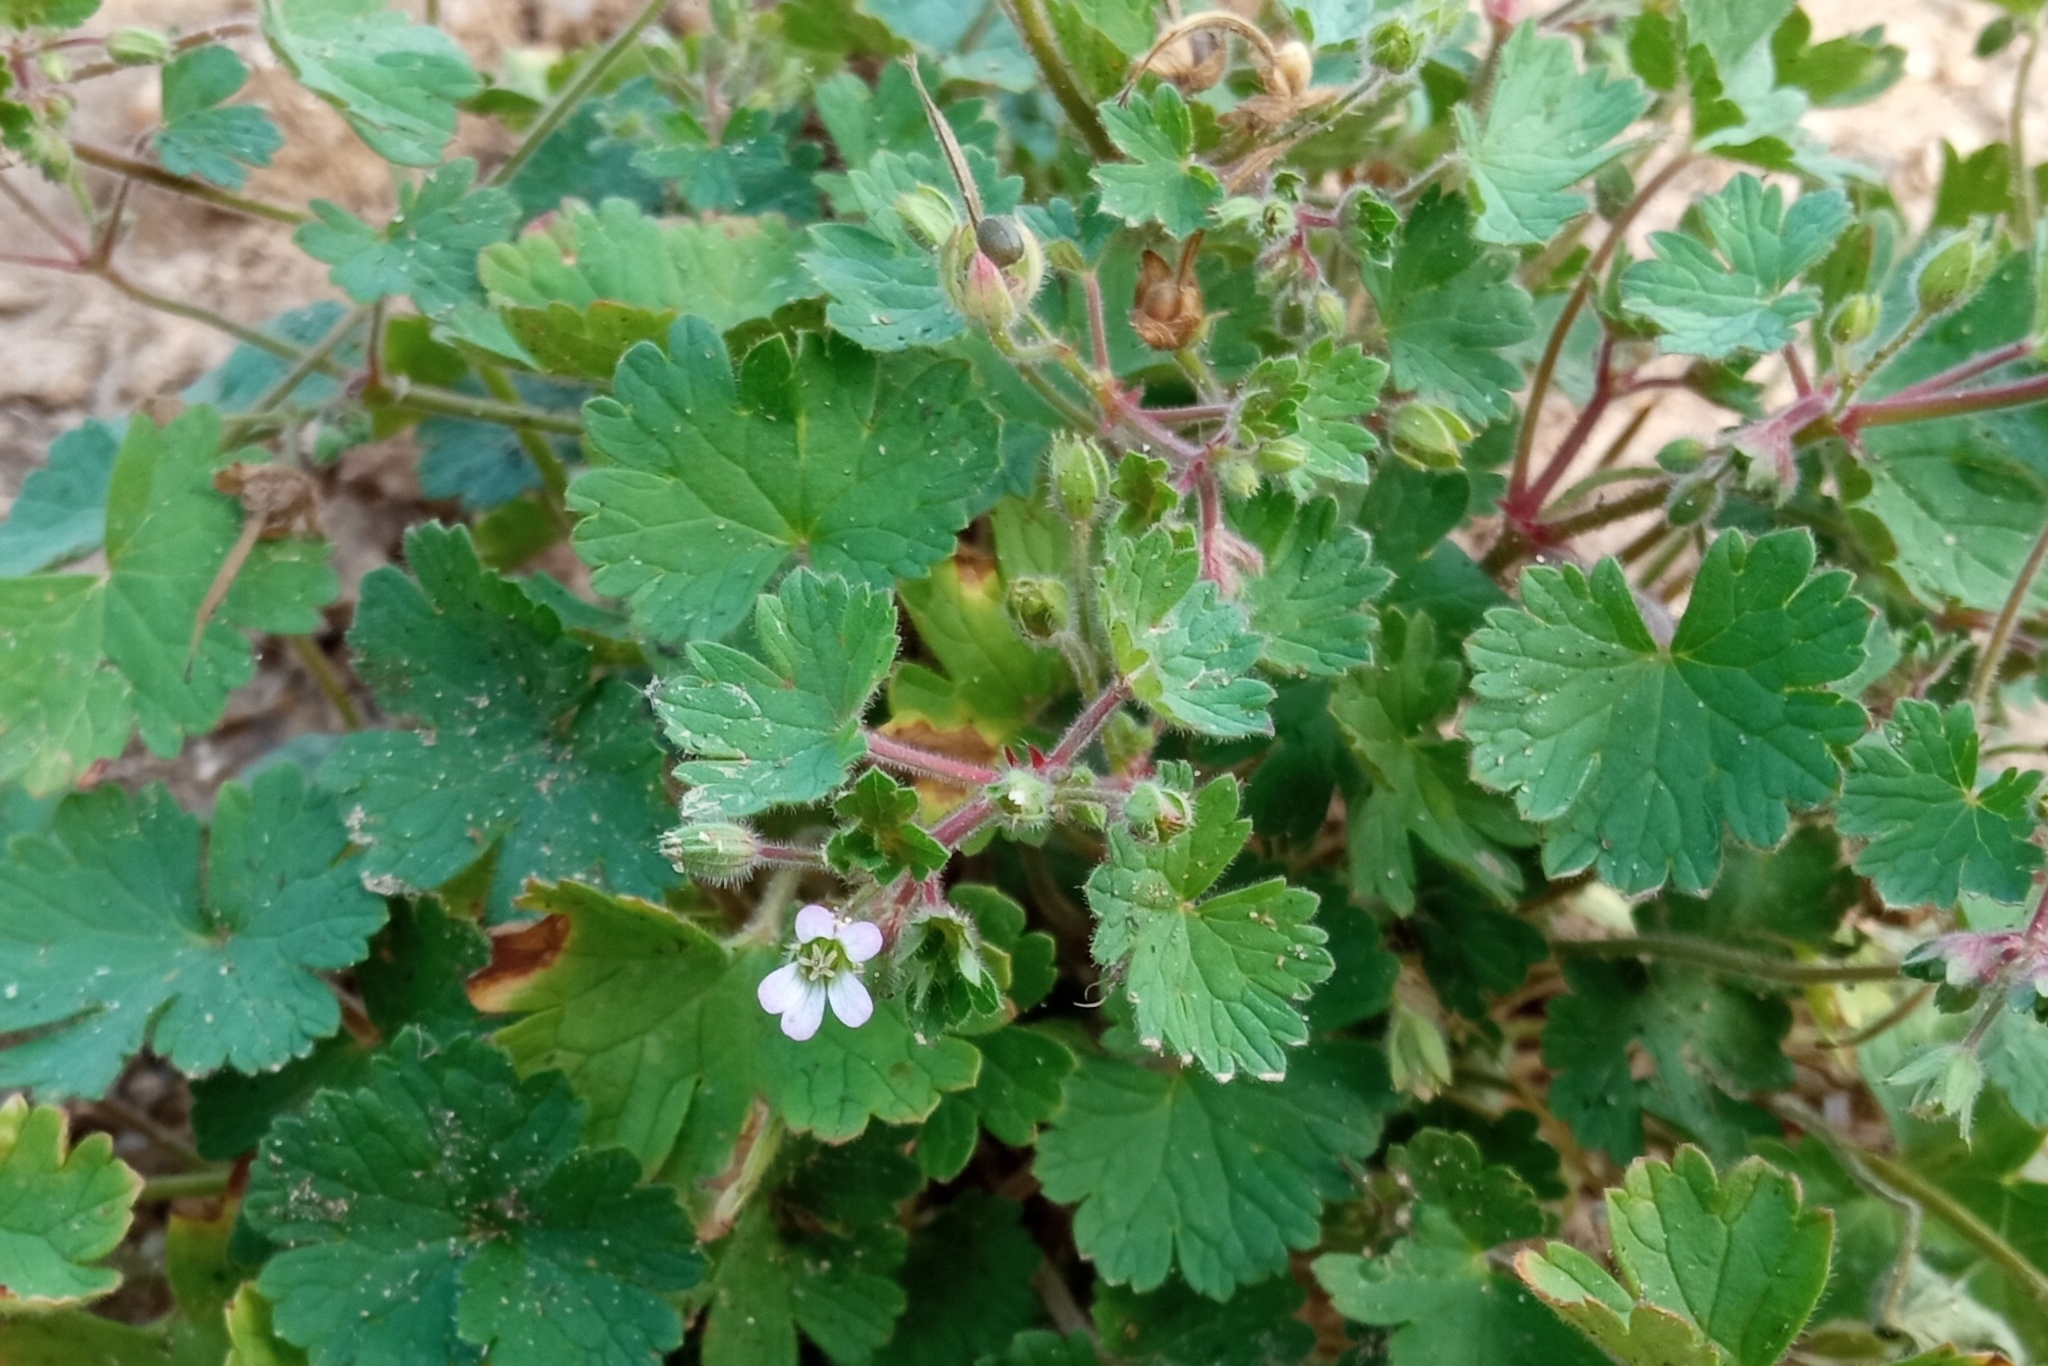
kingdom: Plantae
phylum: Tracheophyta
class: Magnoliopsida
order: Geraniales
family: Geraniaceae
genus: Geranium
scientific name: Geranium rotundifolium
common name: Round-leaved crane's-bill
